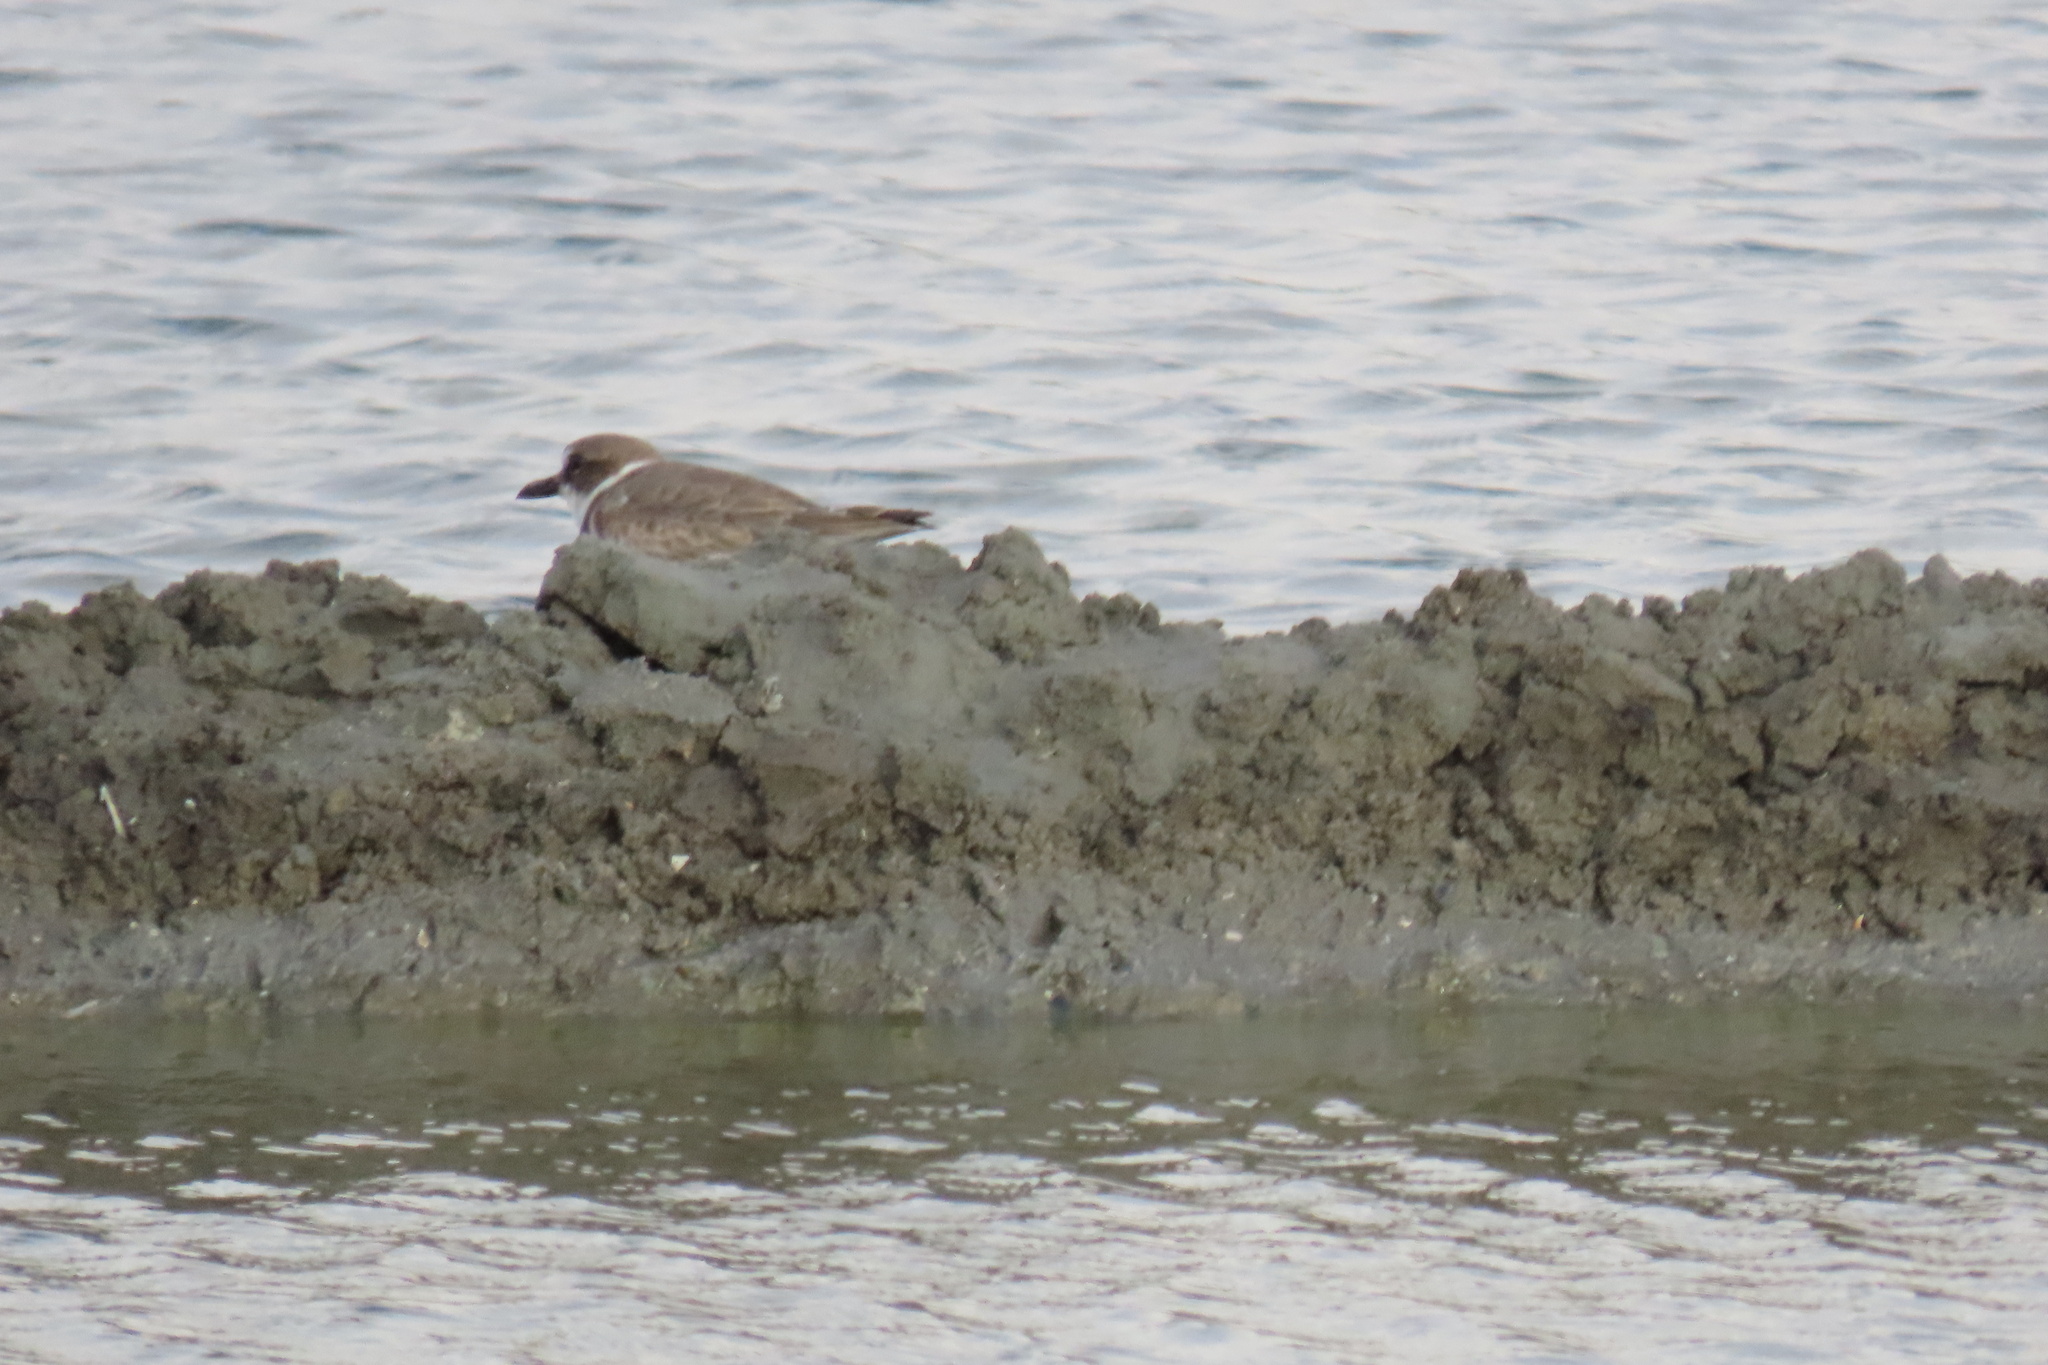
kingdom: Animalia
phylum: Chordata
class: Aves
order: Charadriiformes
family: Charadriidae
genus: Anarhynchus
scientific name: Anarhynchus
